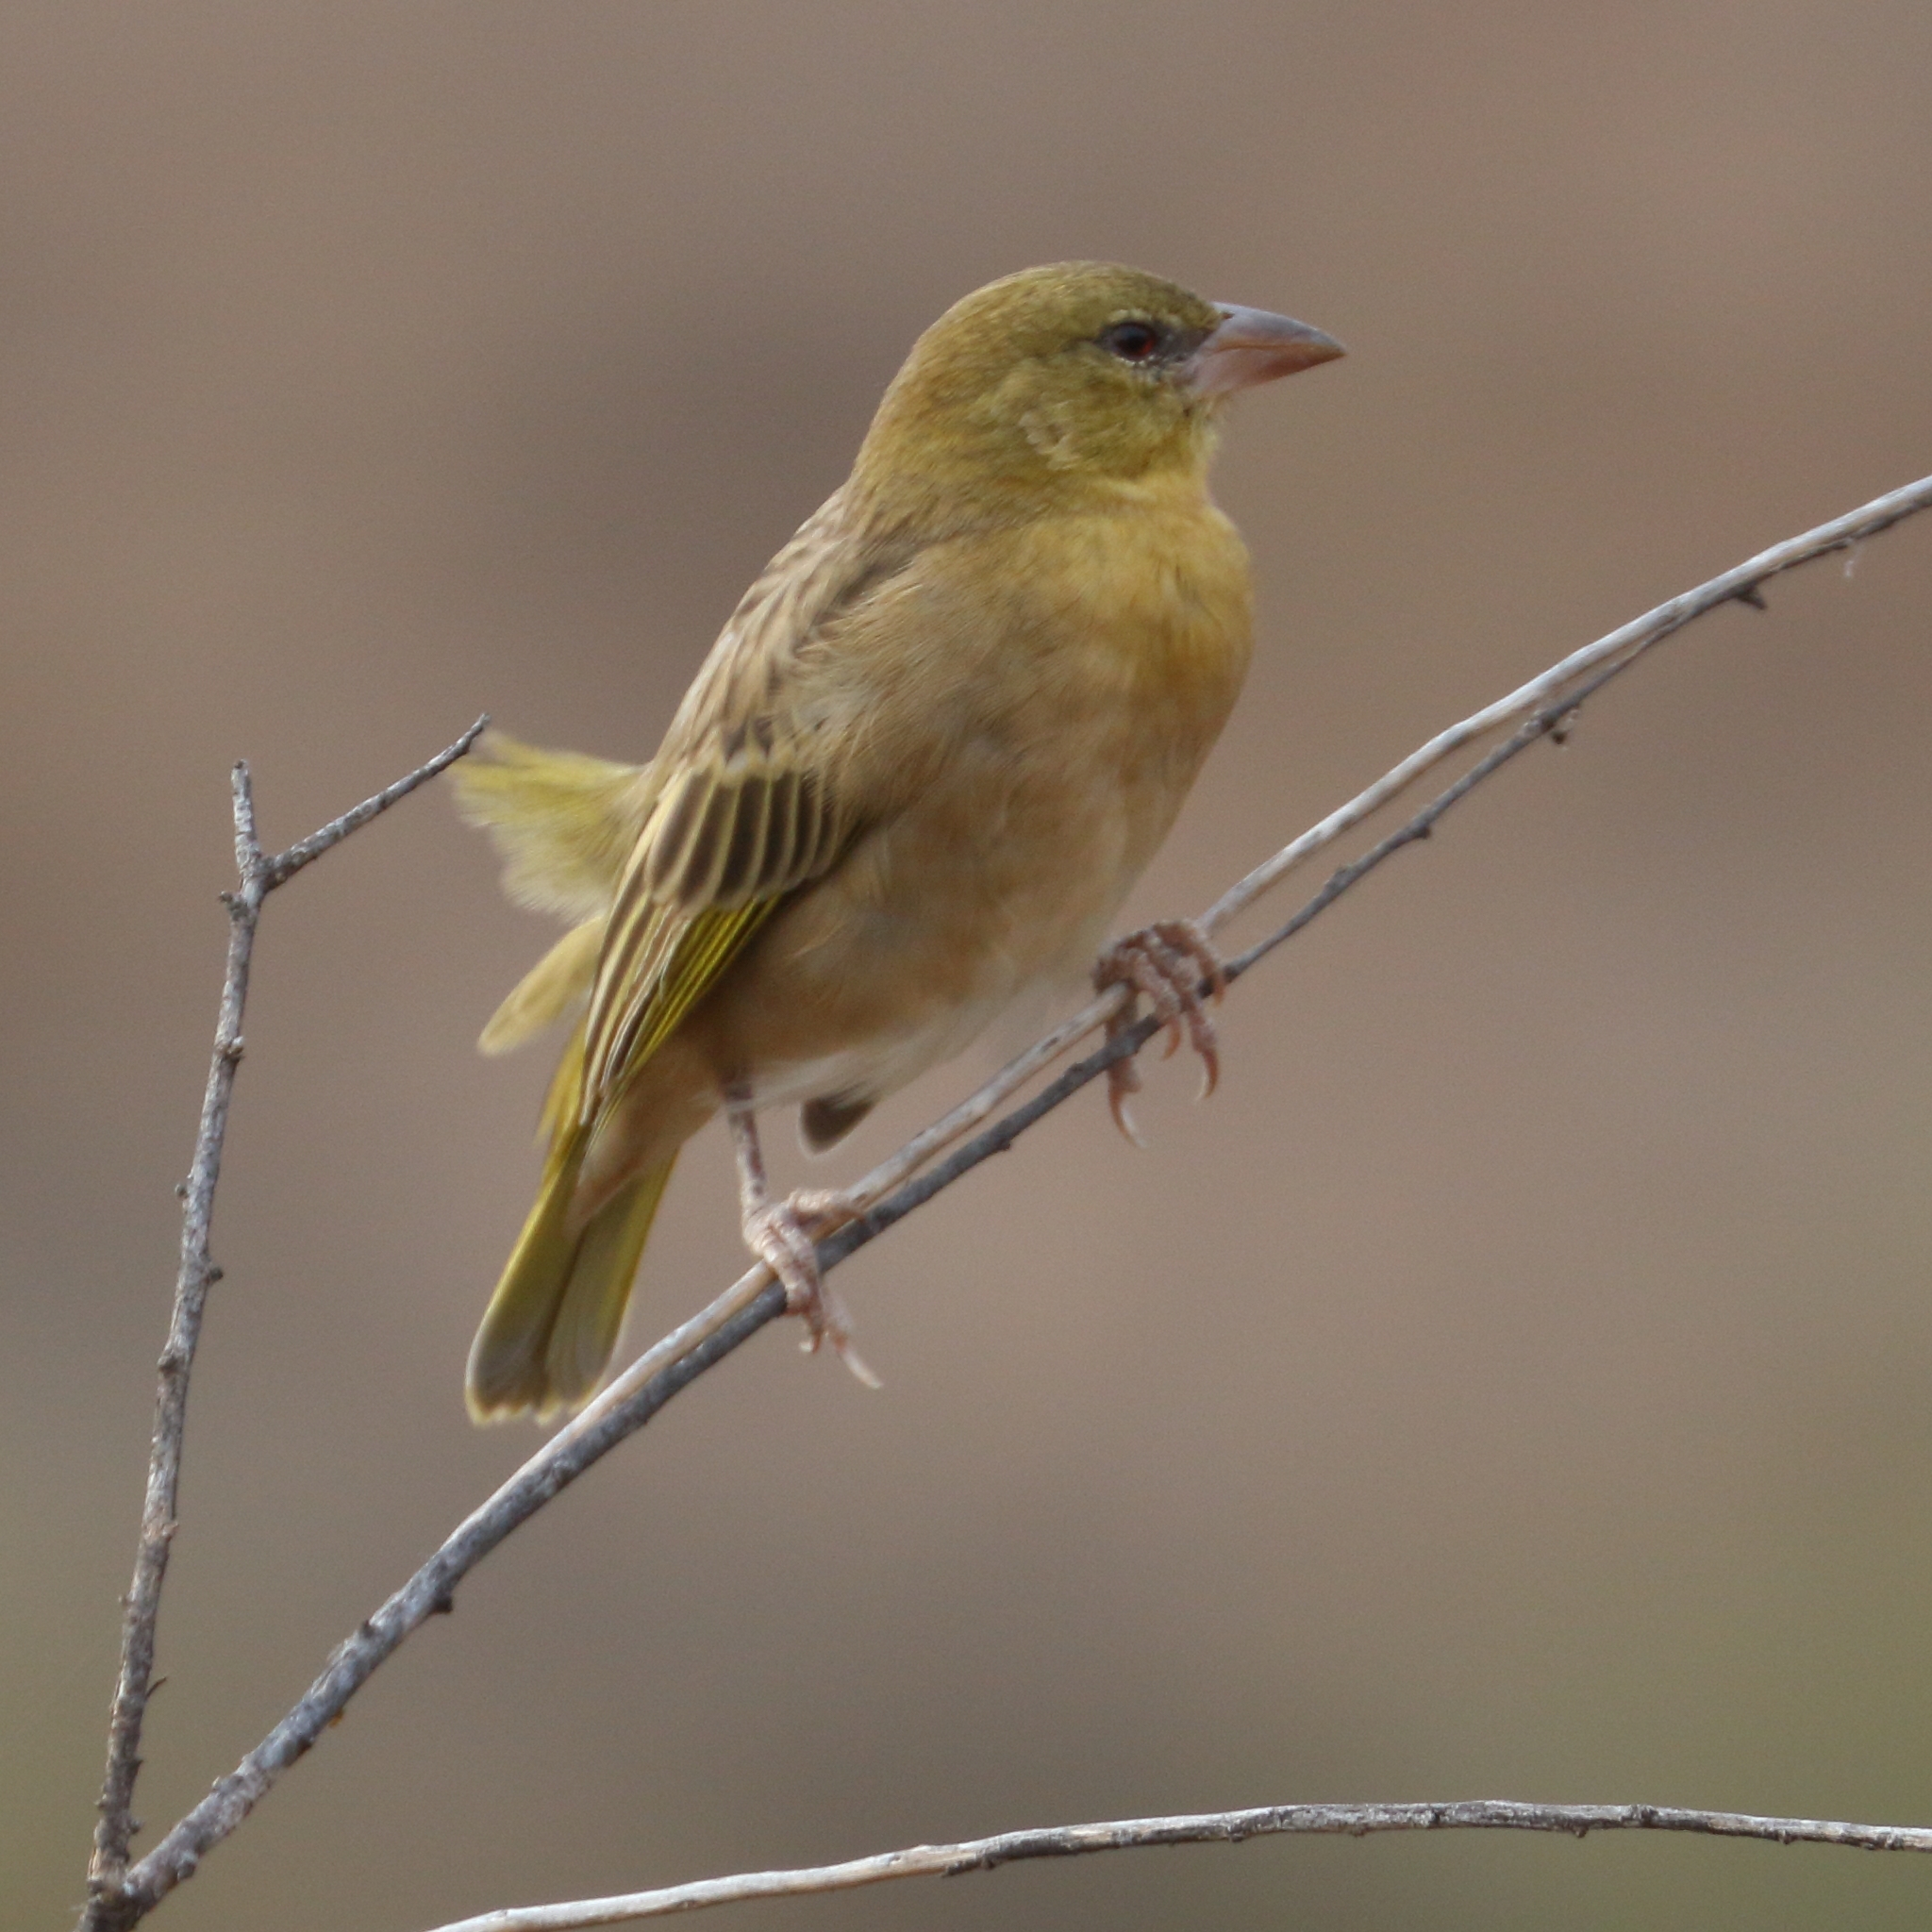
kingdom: Animalia
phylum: Chordata
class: Aves
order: Passeriformes
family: Ploceidae
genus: Ploceus
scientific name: Ploceus velatus
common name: Southern masked weaver
